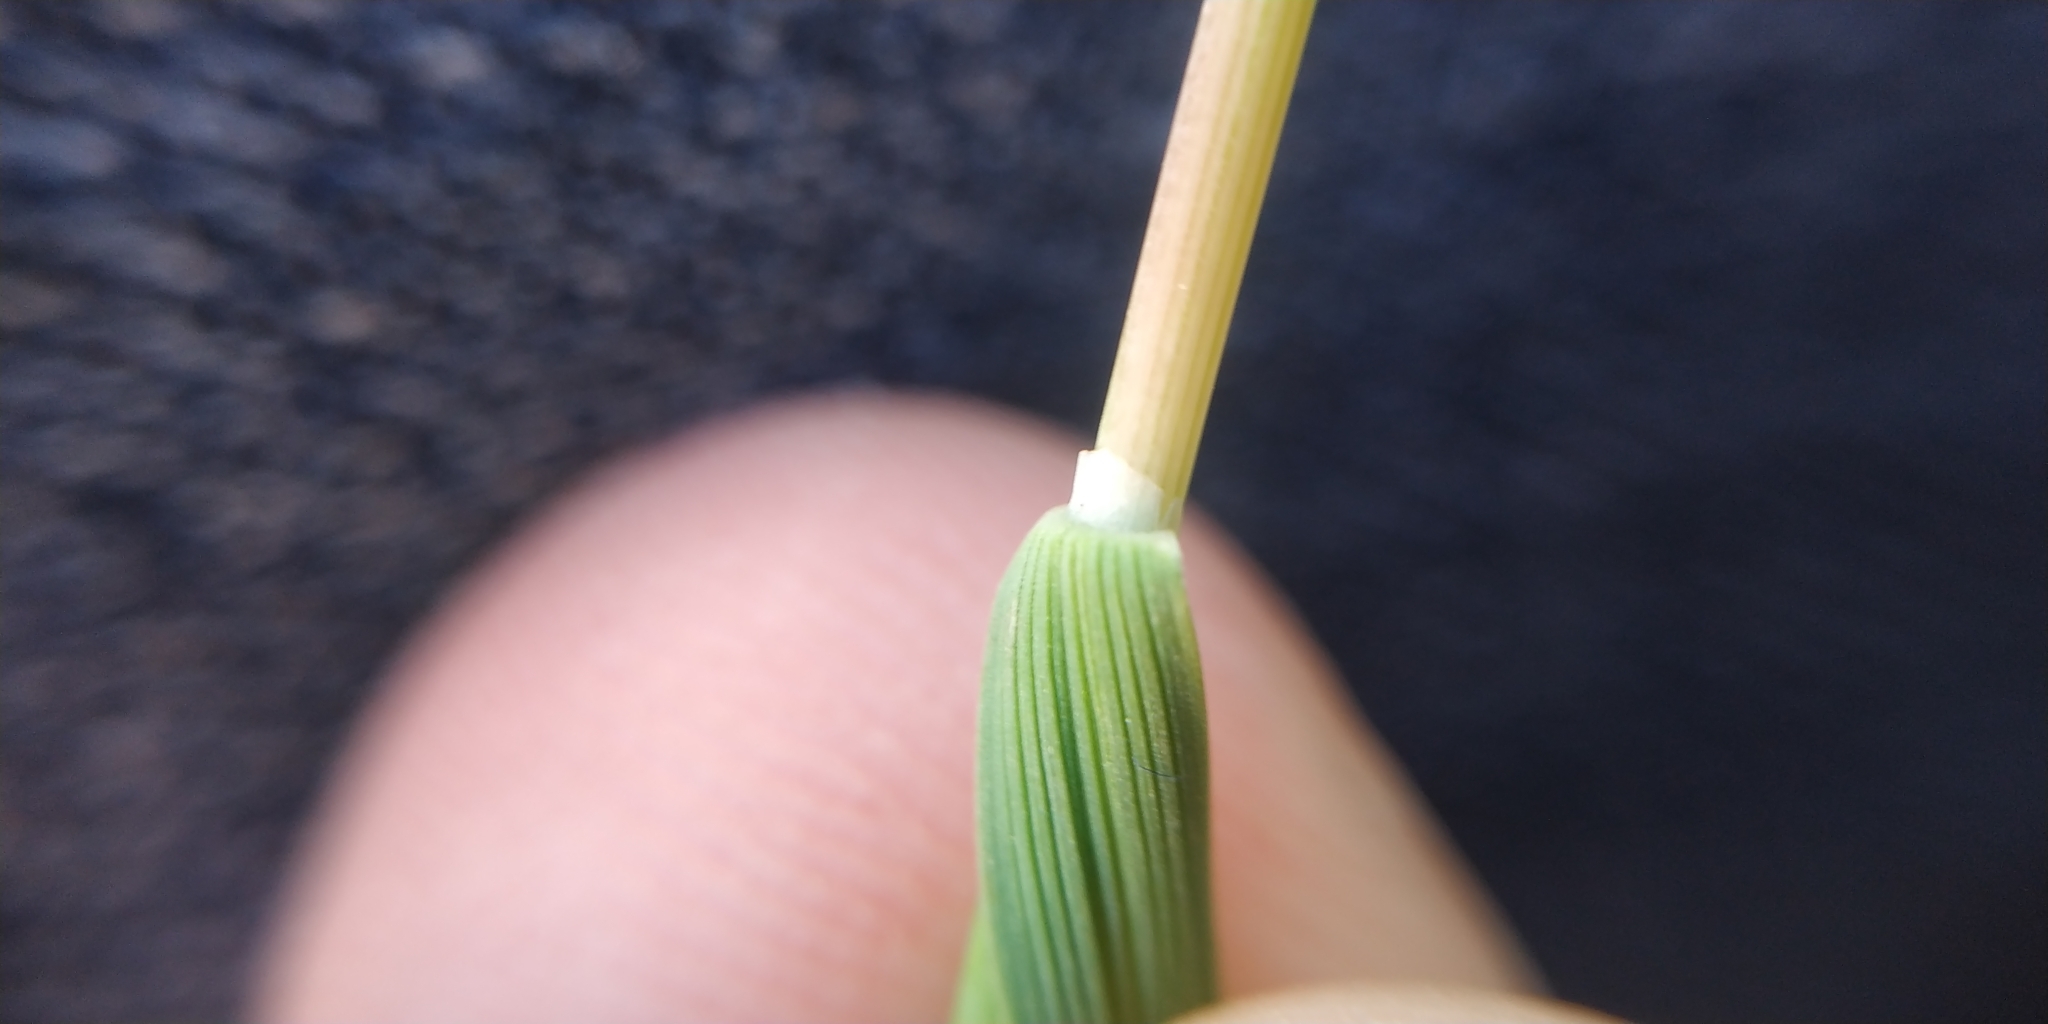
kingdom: Plantae
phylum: Tracheophyta
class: Liliopsida
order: Poales
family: Poaceae
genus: Puccinellia
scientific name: Puccinellia distans
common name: Weeping alkaligrass
